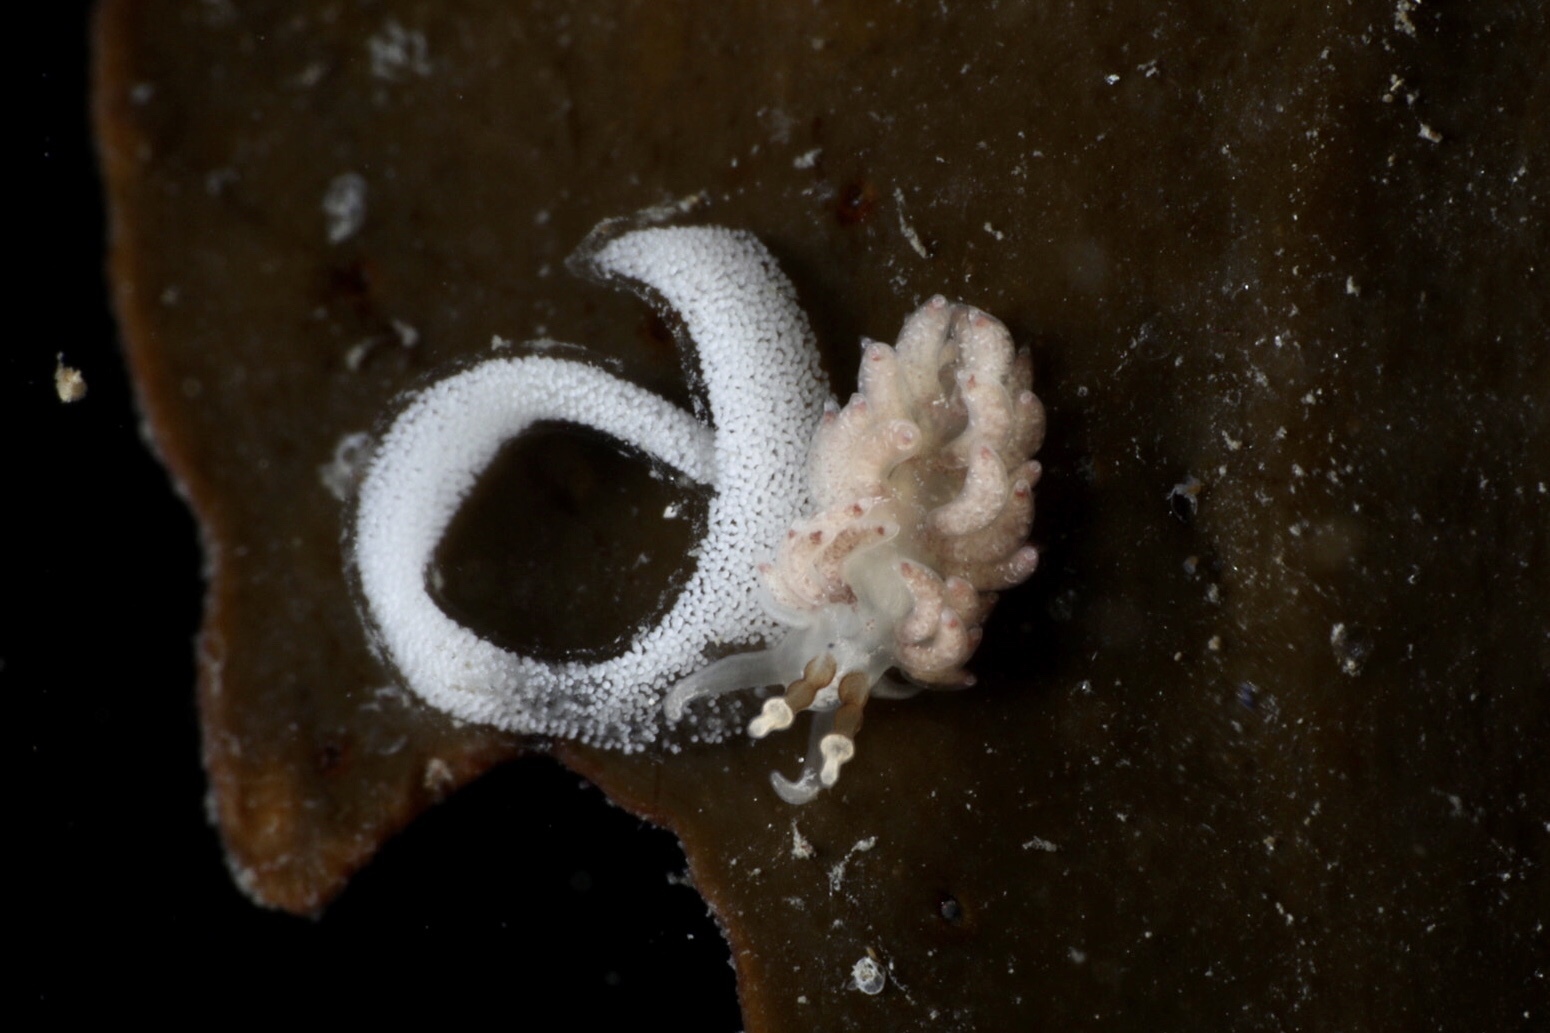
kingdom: Animalia
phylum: Mollusca
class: Gastropoda
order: Nudibranchia
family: Facelinidae
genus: Favorinus
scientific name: Favorinus branchialis
